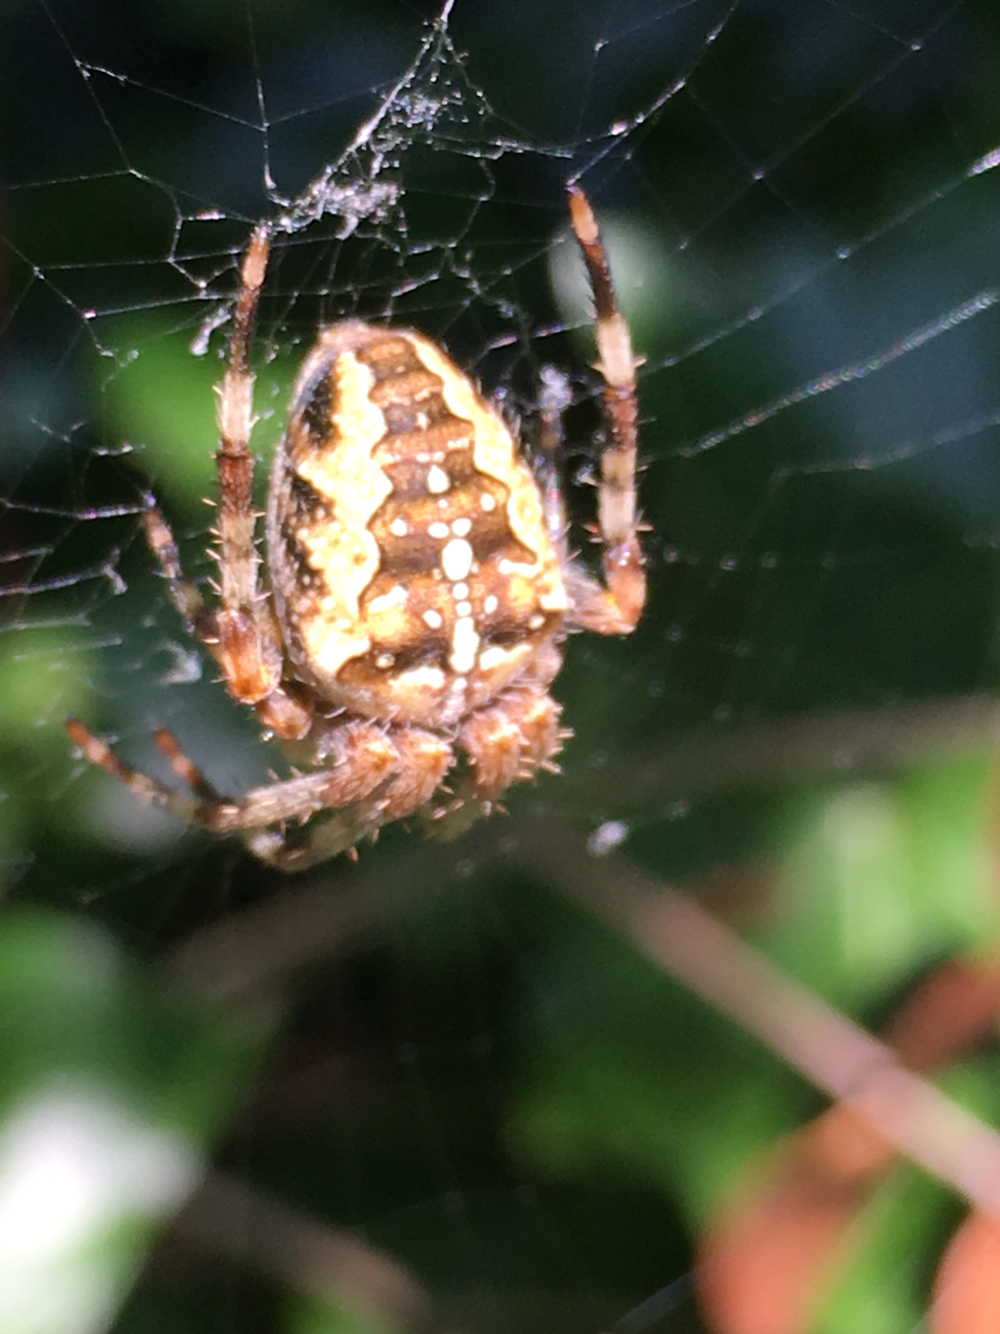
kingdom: Animalia
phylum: Arthropoda
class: Arachnida
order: Araneae
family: Araneidae
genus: Araneus
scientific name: Araneus diadematus
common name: Cross orbweaver
